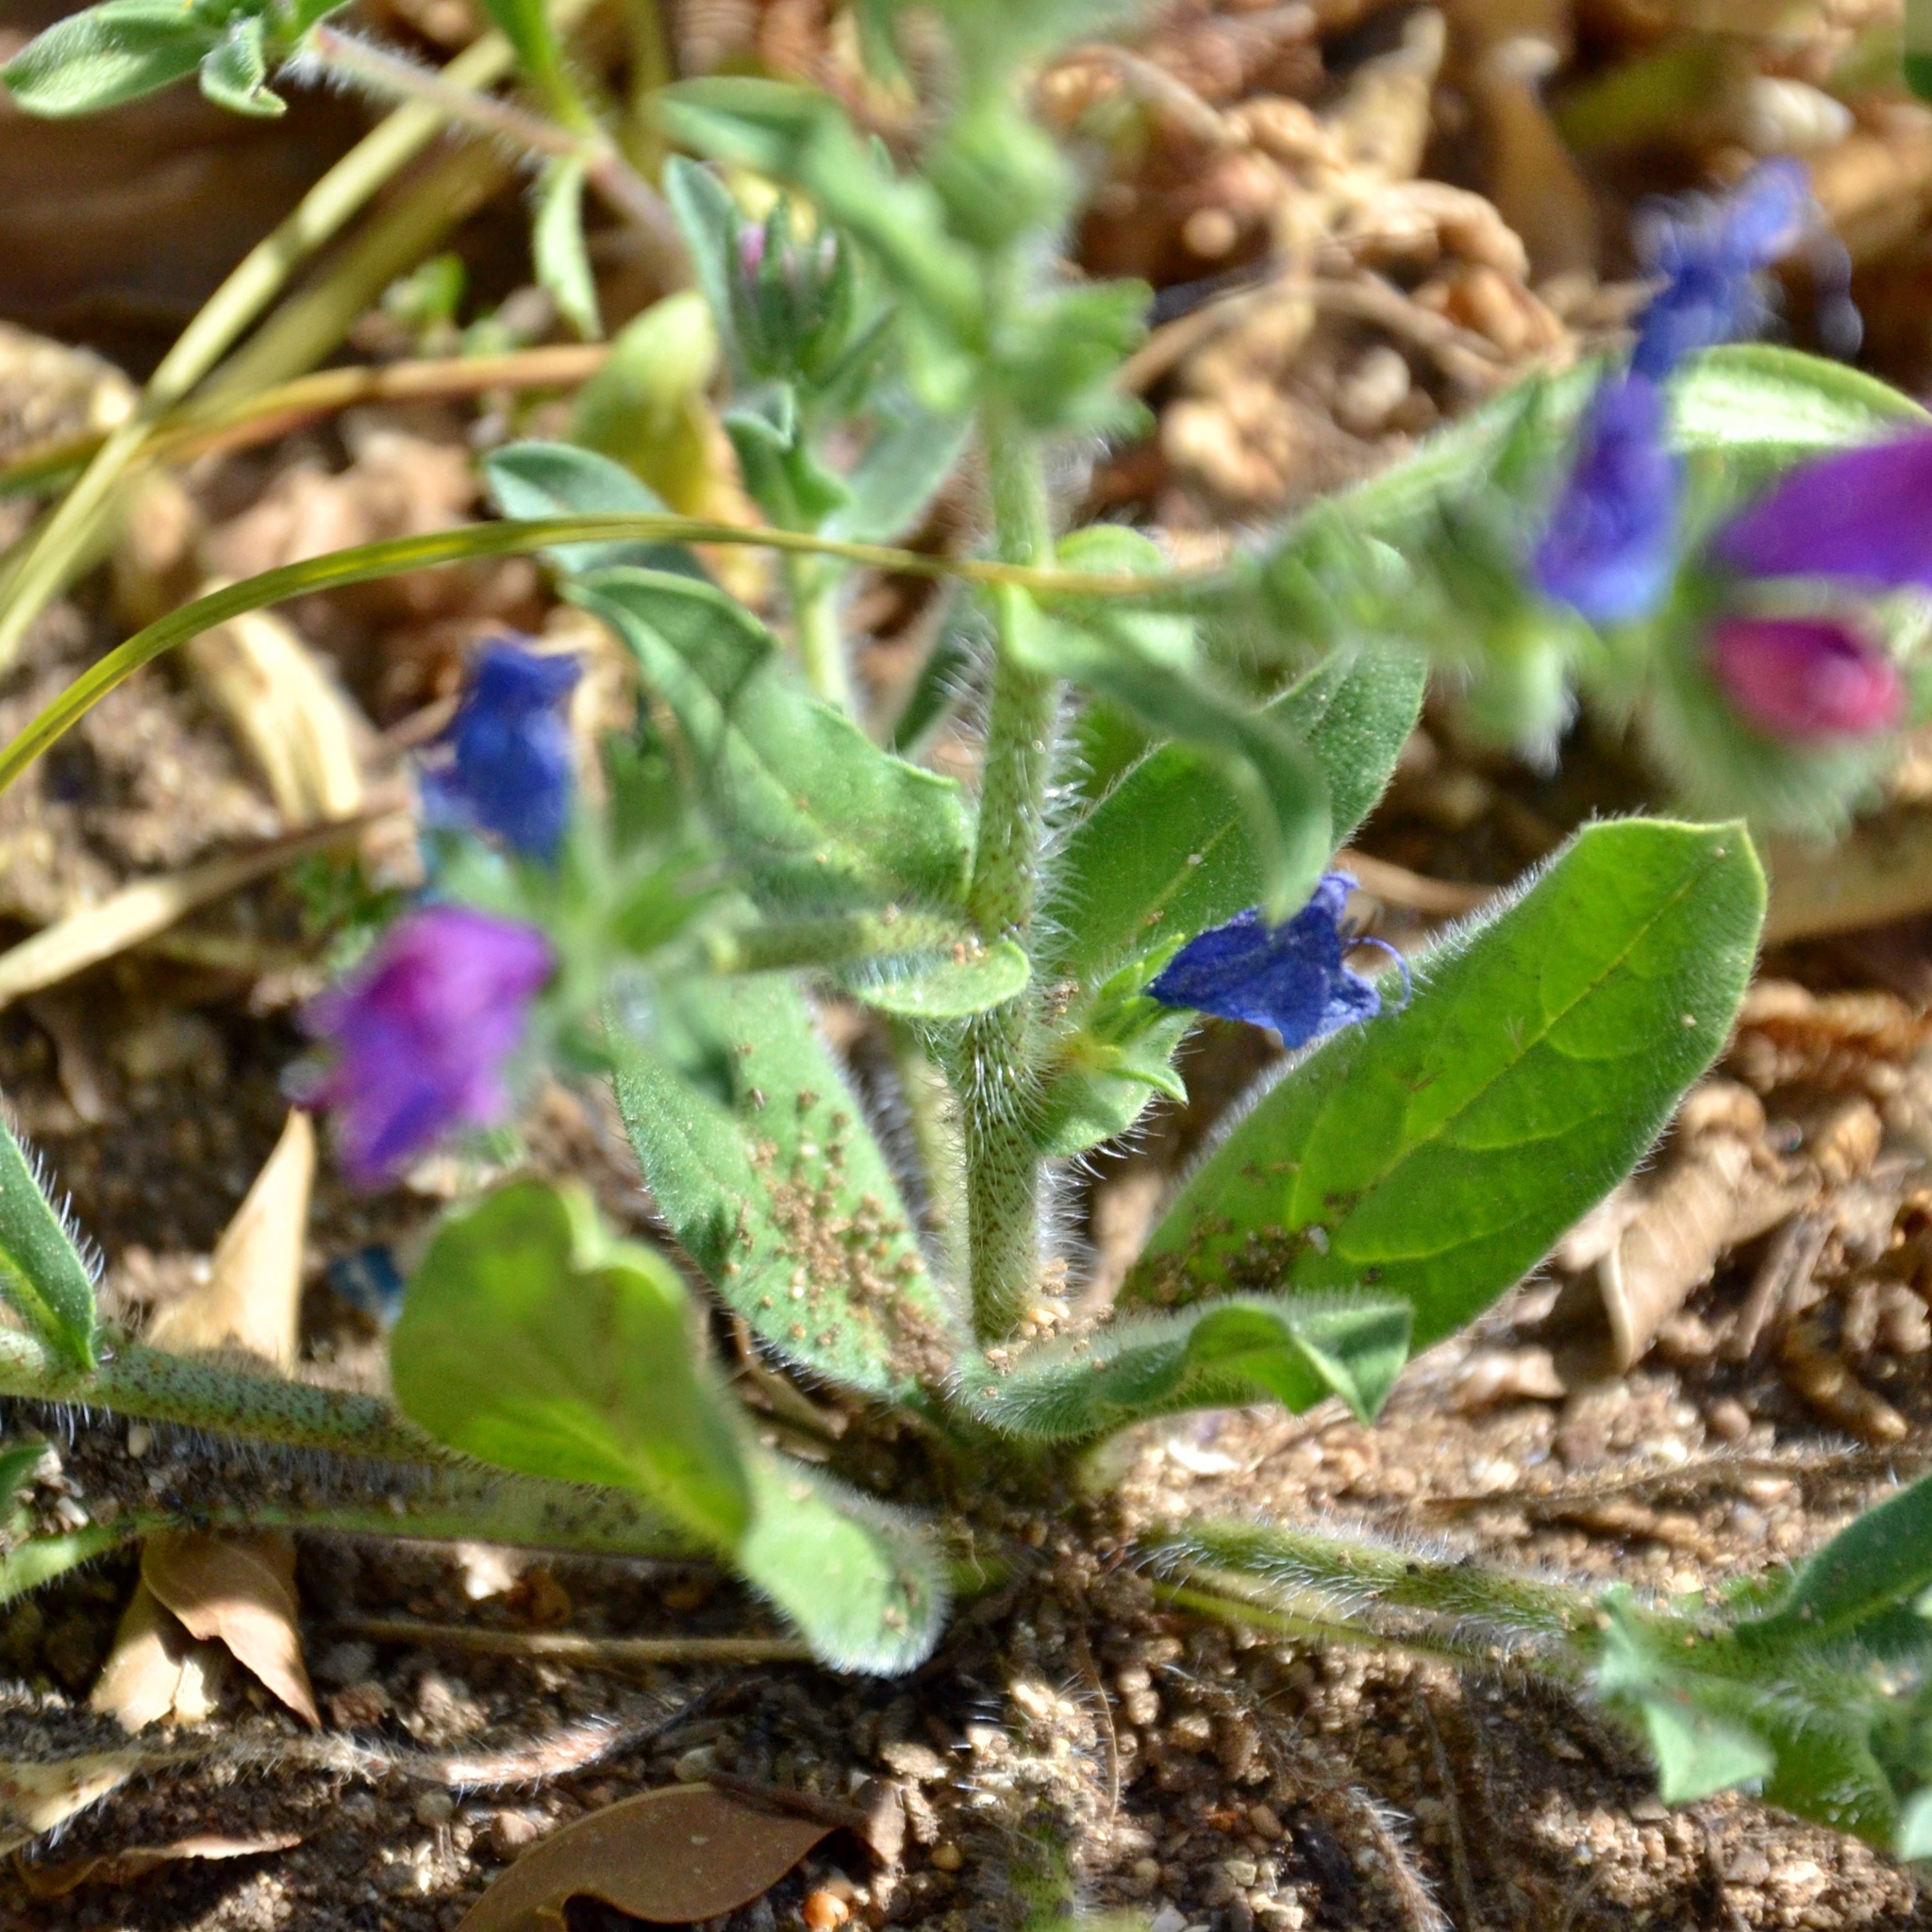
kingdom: Plantae
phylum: Tracheophyta
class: Magnoliopsida
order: Boraginales
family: Boraginaceae
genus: Echium
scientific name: Echium plantagineum
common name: Purple viper's-bugloss
